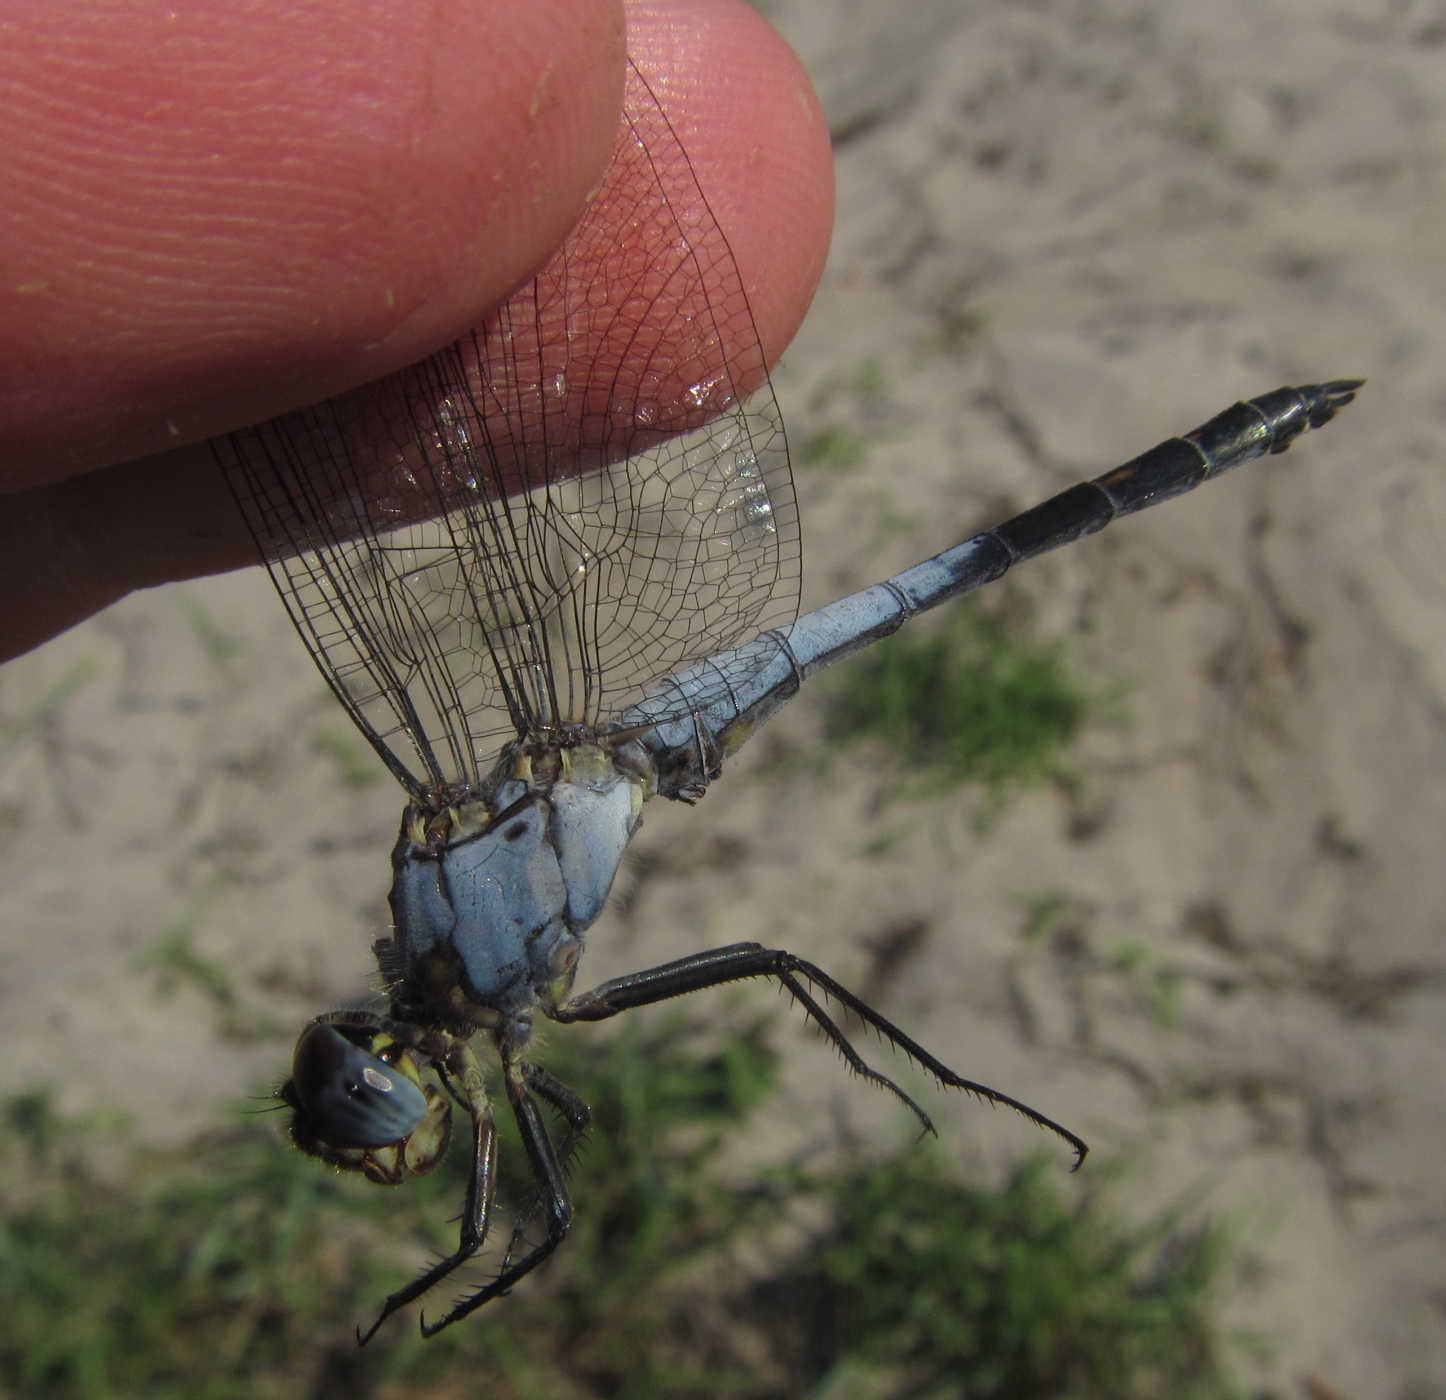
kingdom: Animalia
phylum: Arthropoda
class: Insecta
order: Odonata
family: Libellulidae
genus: Nesciothemis
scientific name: Nesciothemis farinosa
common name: Eastern blacktail
